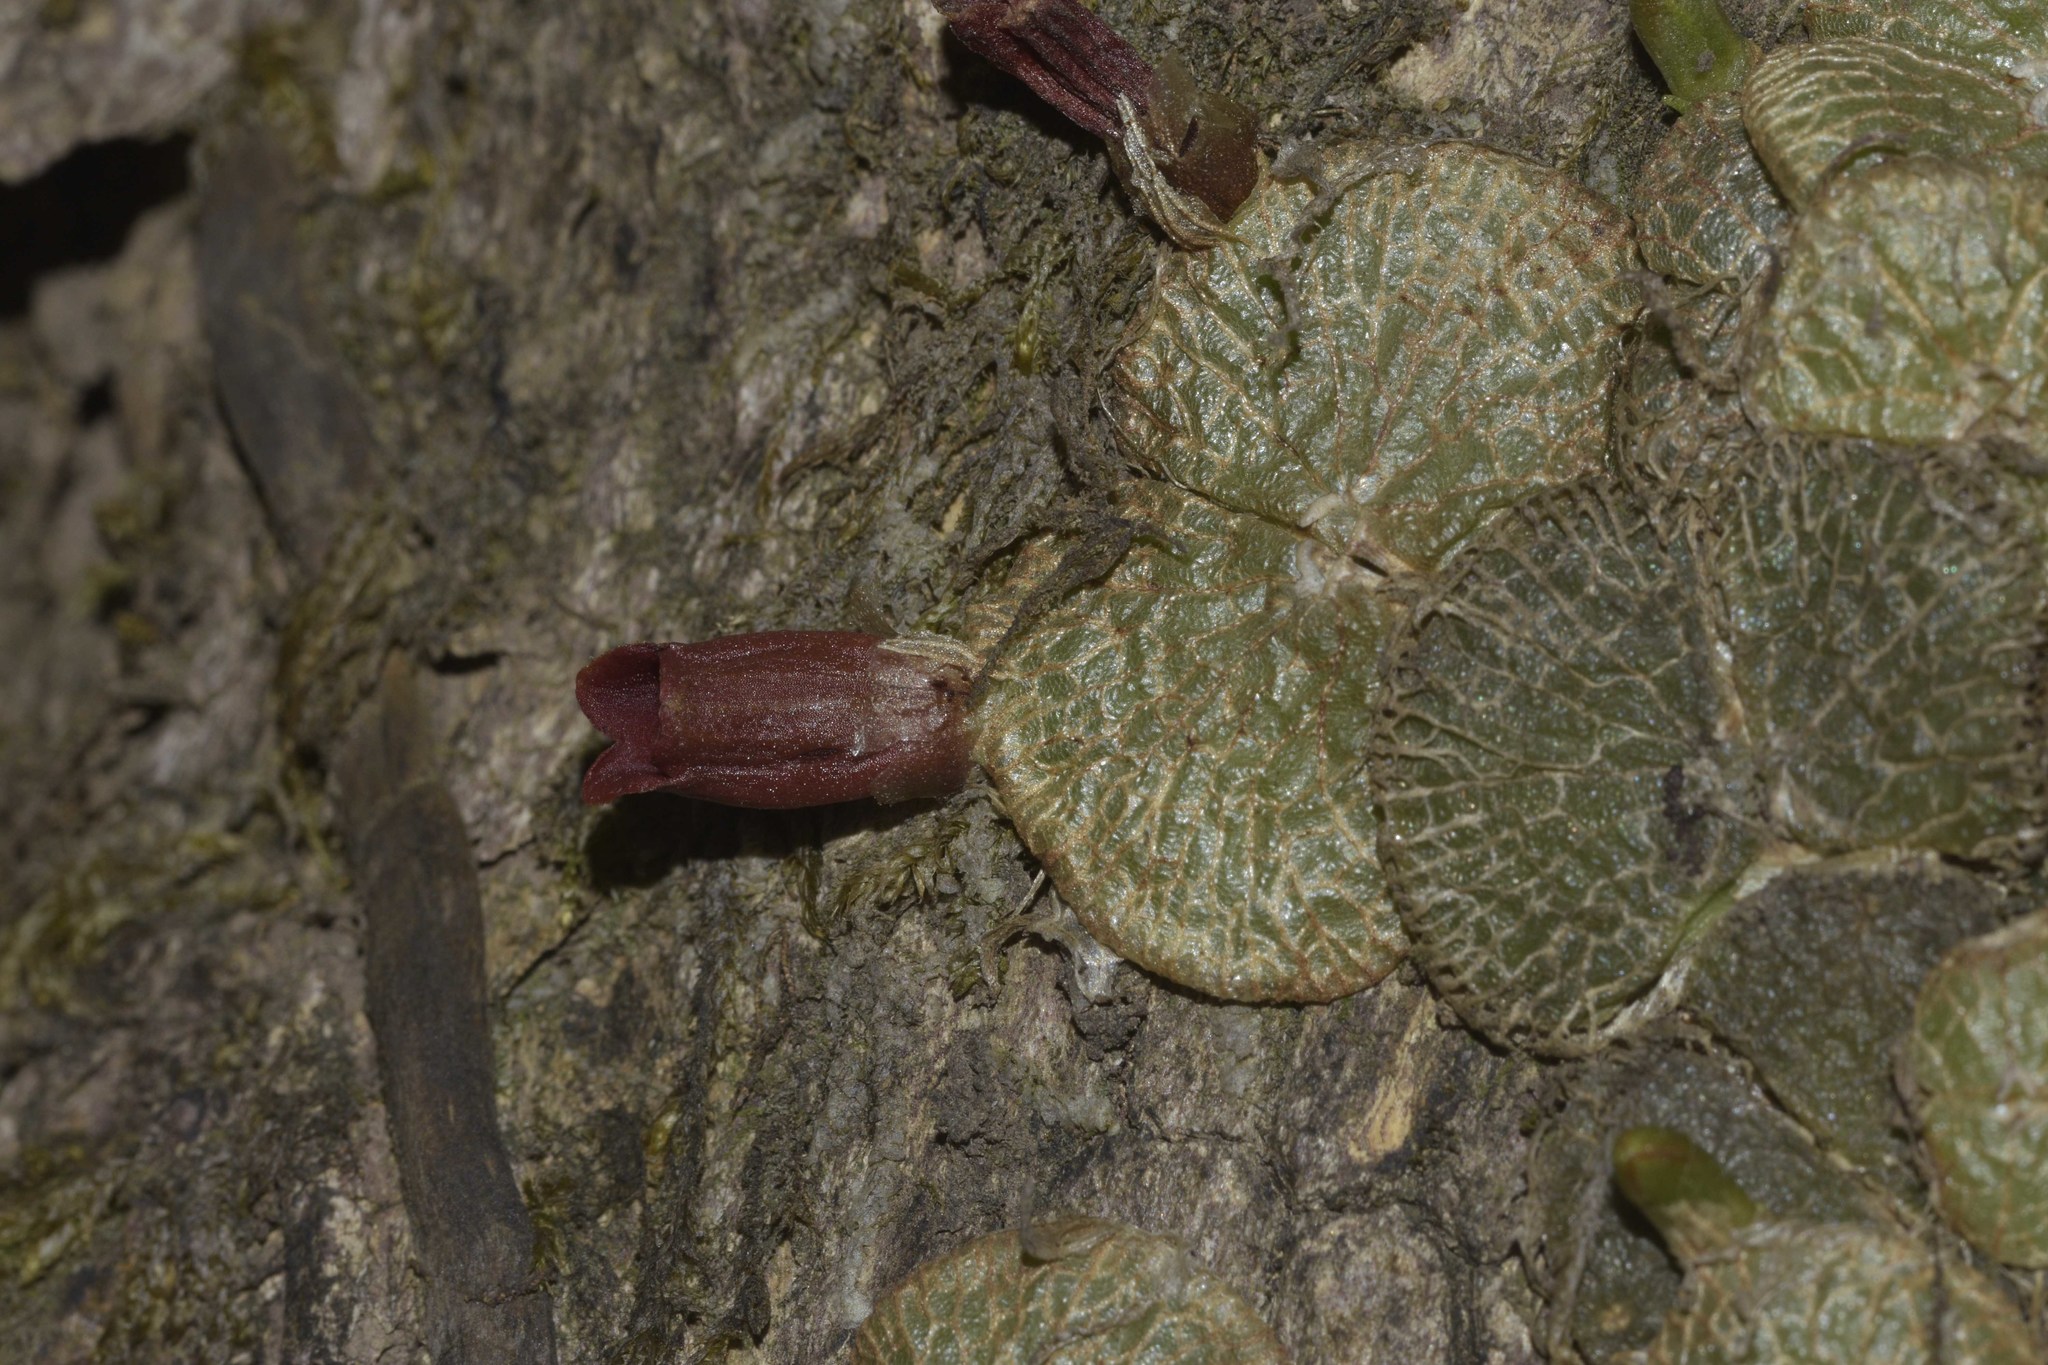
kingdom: Plantae
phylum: Tracheophyta
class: Liliopsida
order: Asparagales
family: Orchidaceae
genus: Porpax
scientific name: Porpax reticulata
